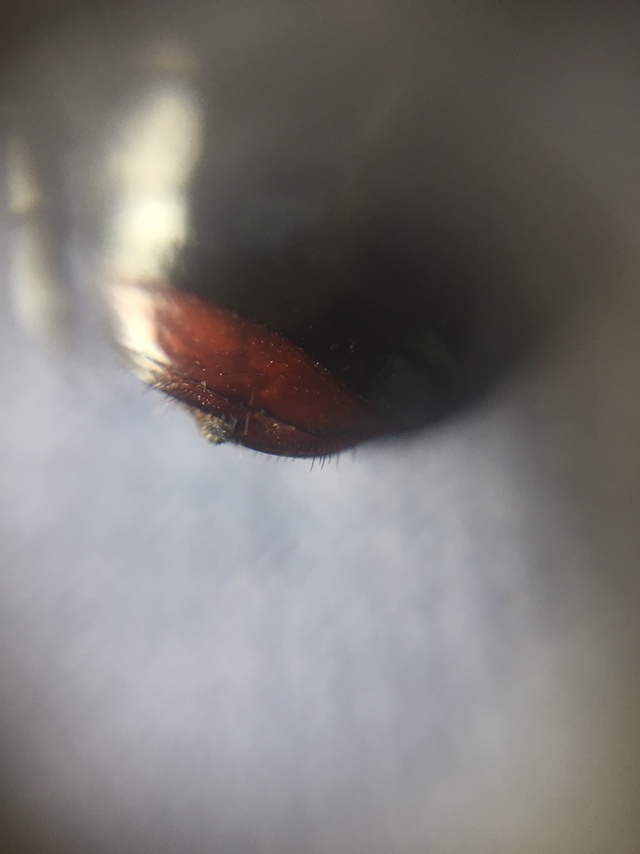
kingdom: Animalia
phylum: Arthropoda
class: Insecta
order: Coleoptera
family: Scarabaeidae
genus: Dicheros
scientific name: Dicheros bimacula
